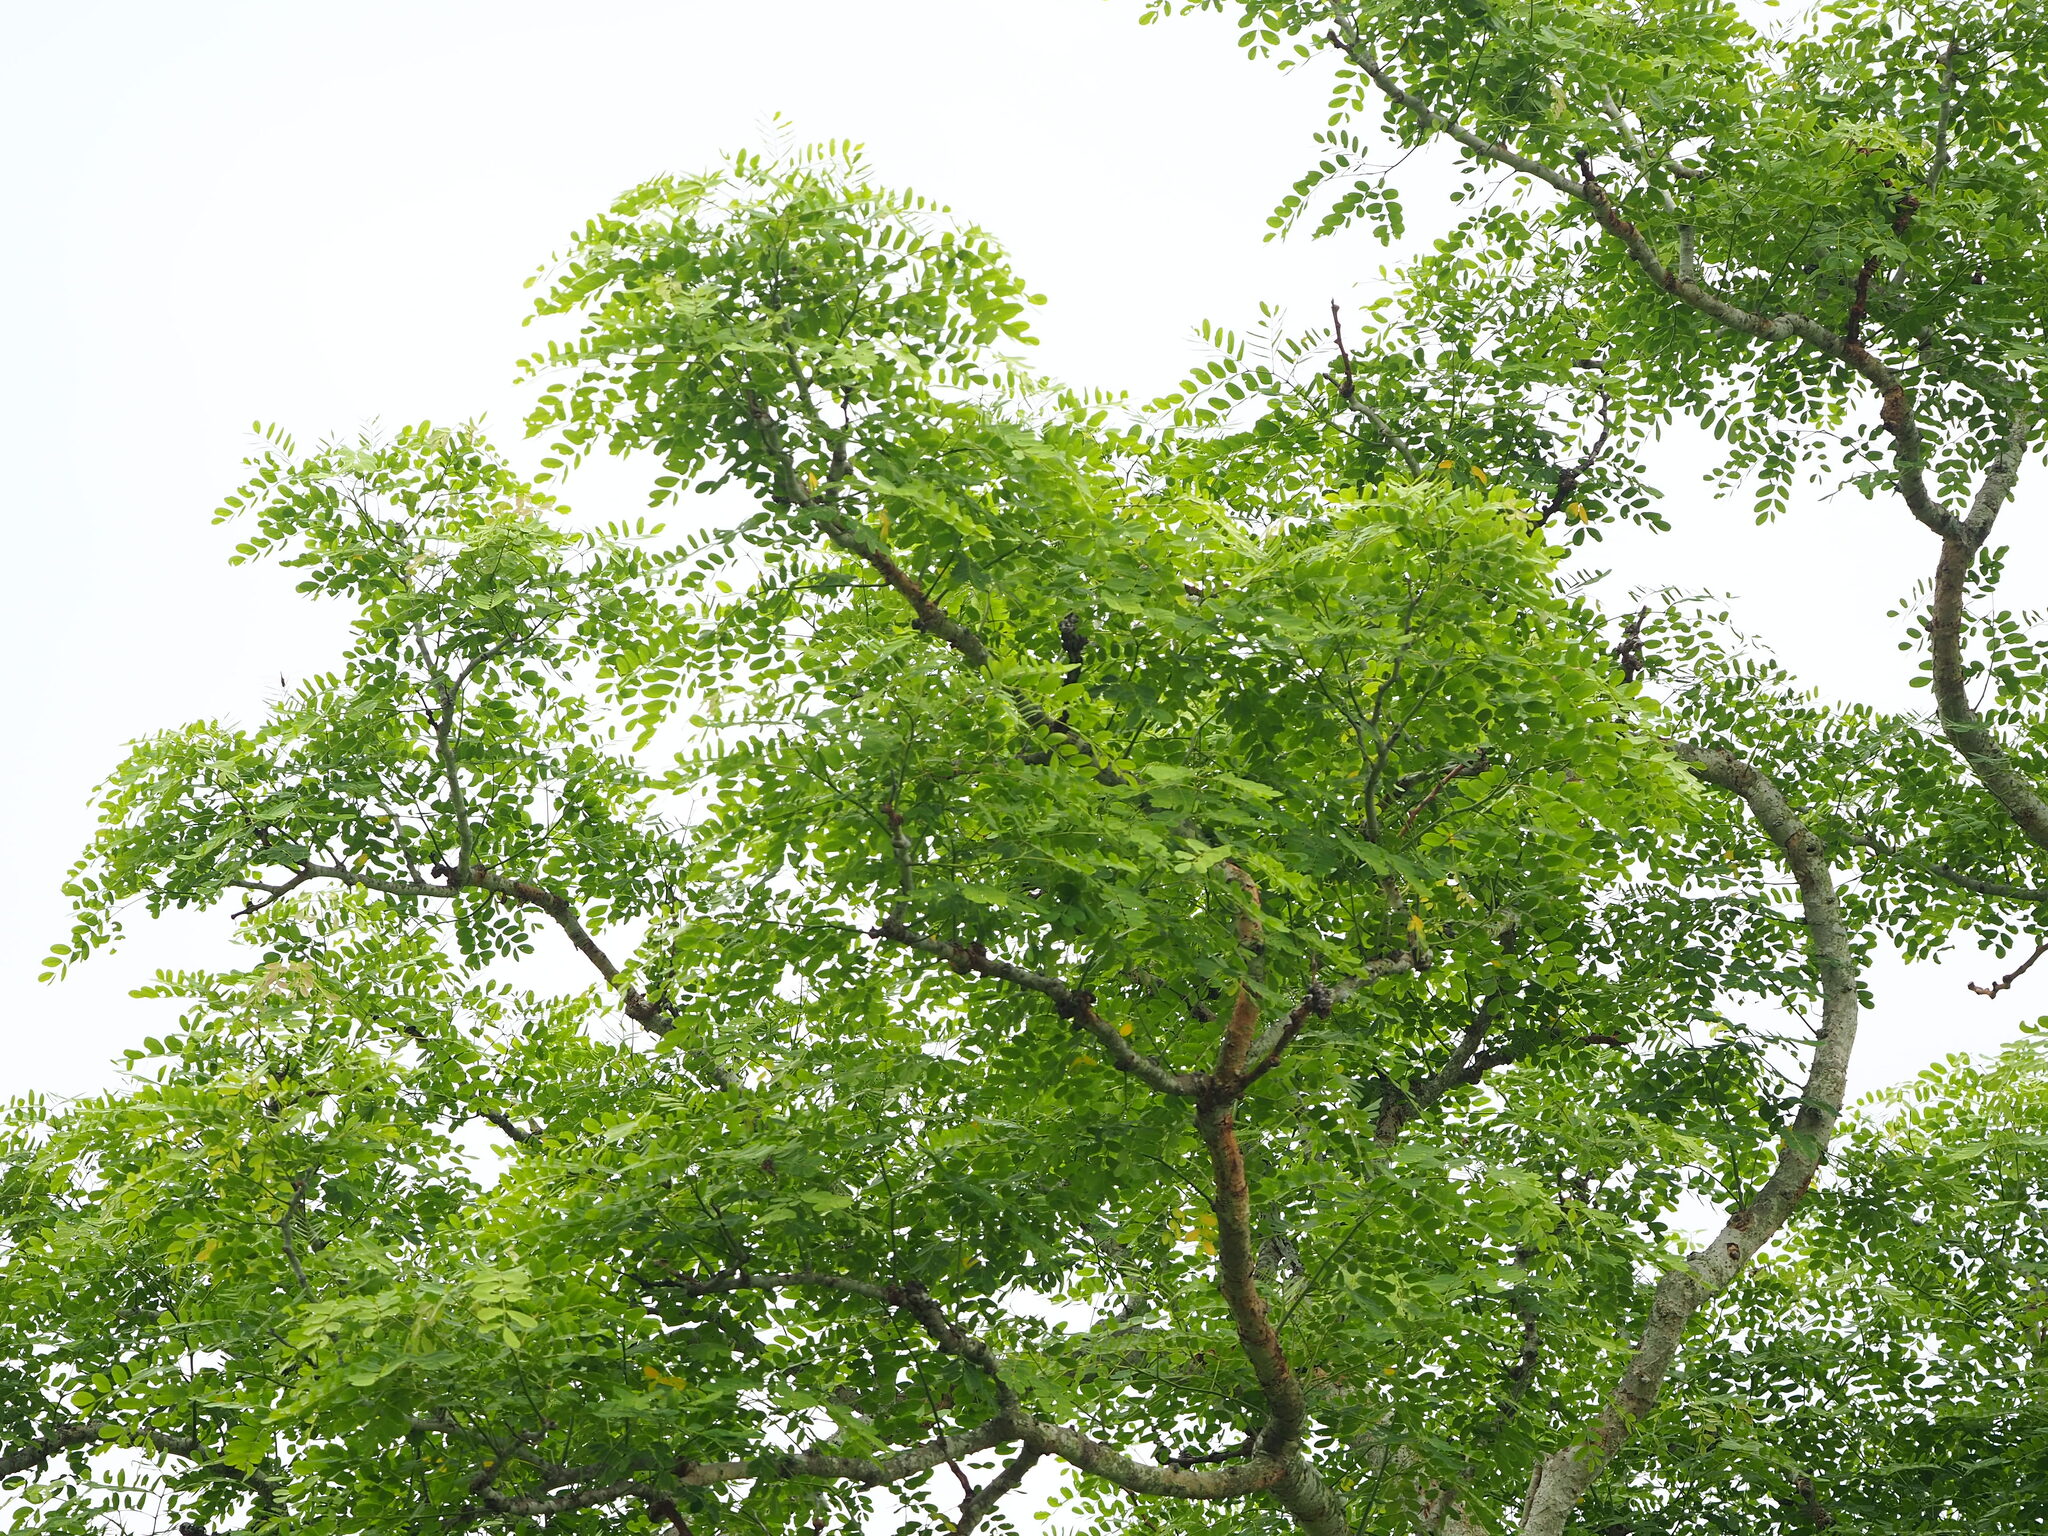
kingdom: Plantae
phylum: Tracheophyta
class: Magnoliopsida
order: Fabales
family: Fabaceae
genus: Albizia
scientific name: Albizia lebbeck
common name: Woman's tongue
